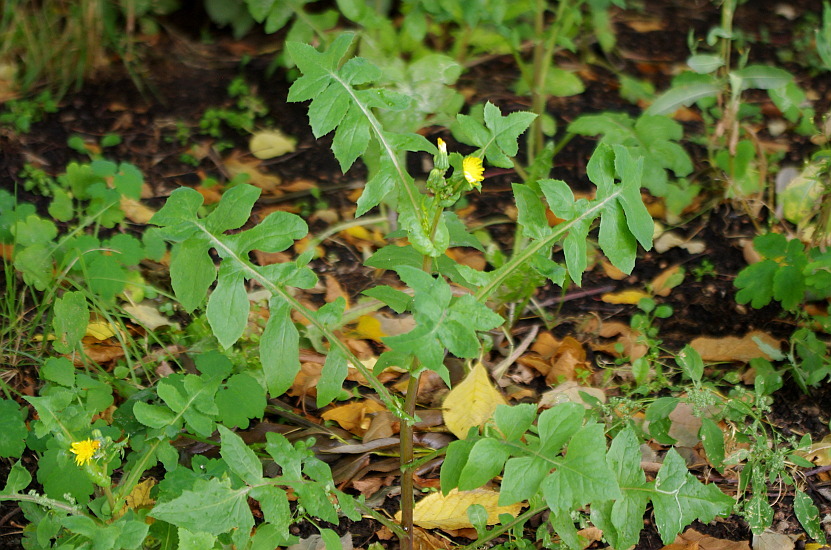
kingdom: Plantae
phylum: Tracheophyta
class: Magnoliopsida
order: Asterales
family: Asteraceae
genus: Sonchus
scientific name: Sonchus oleraceus
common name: Common sowthistle
